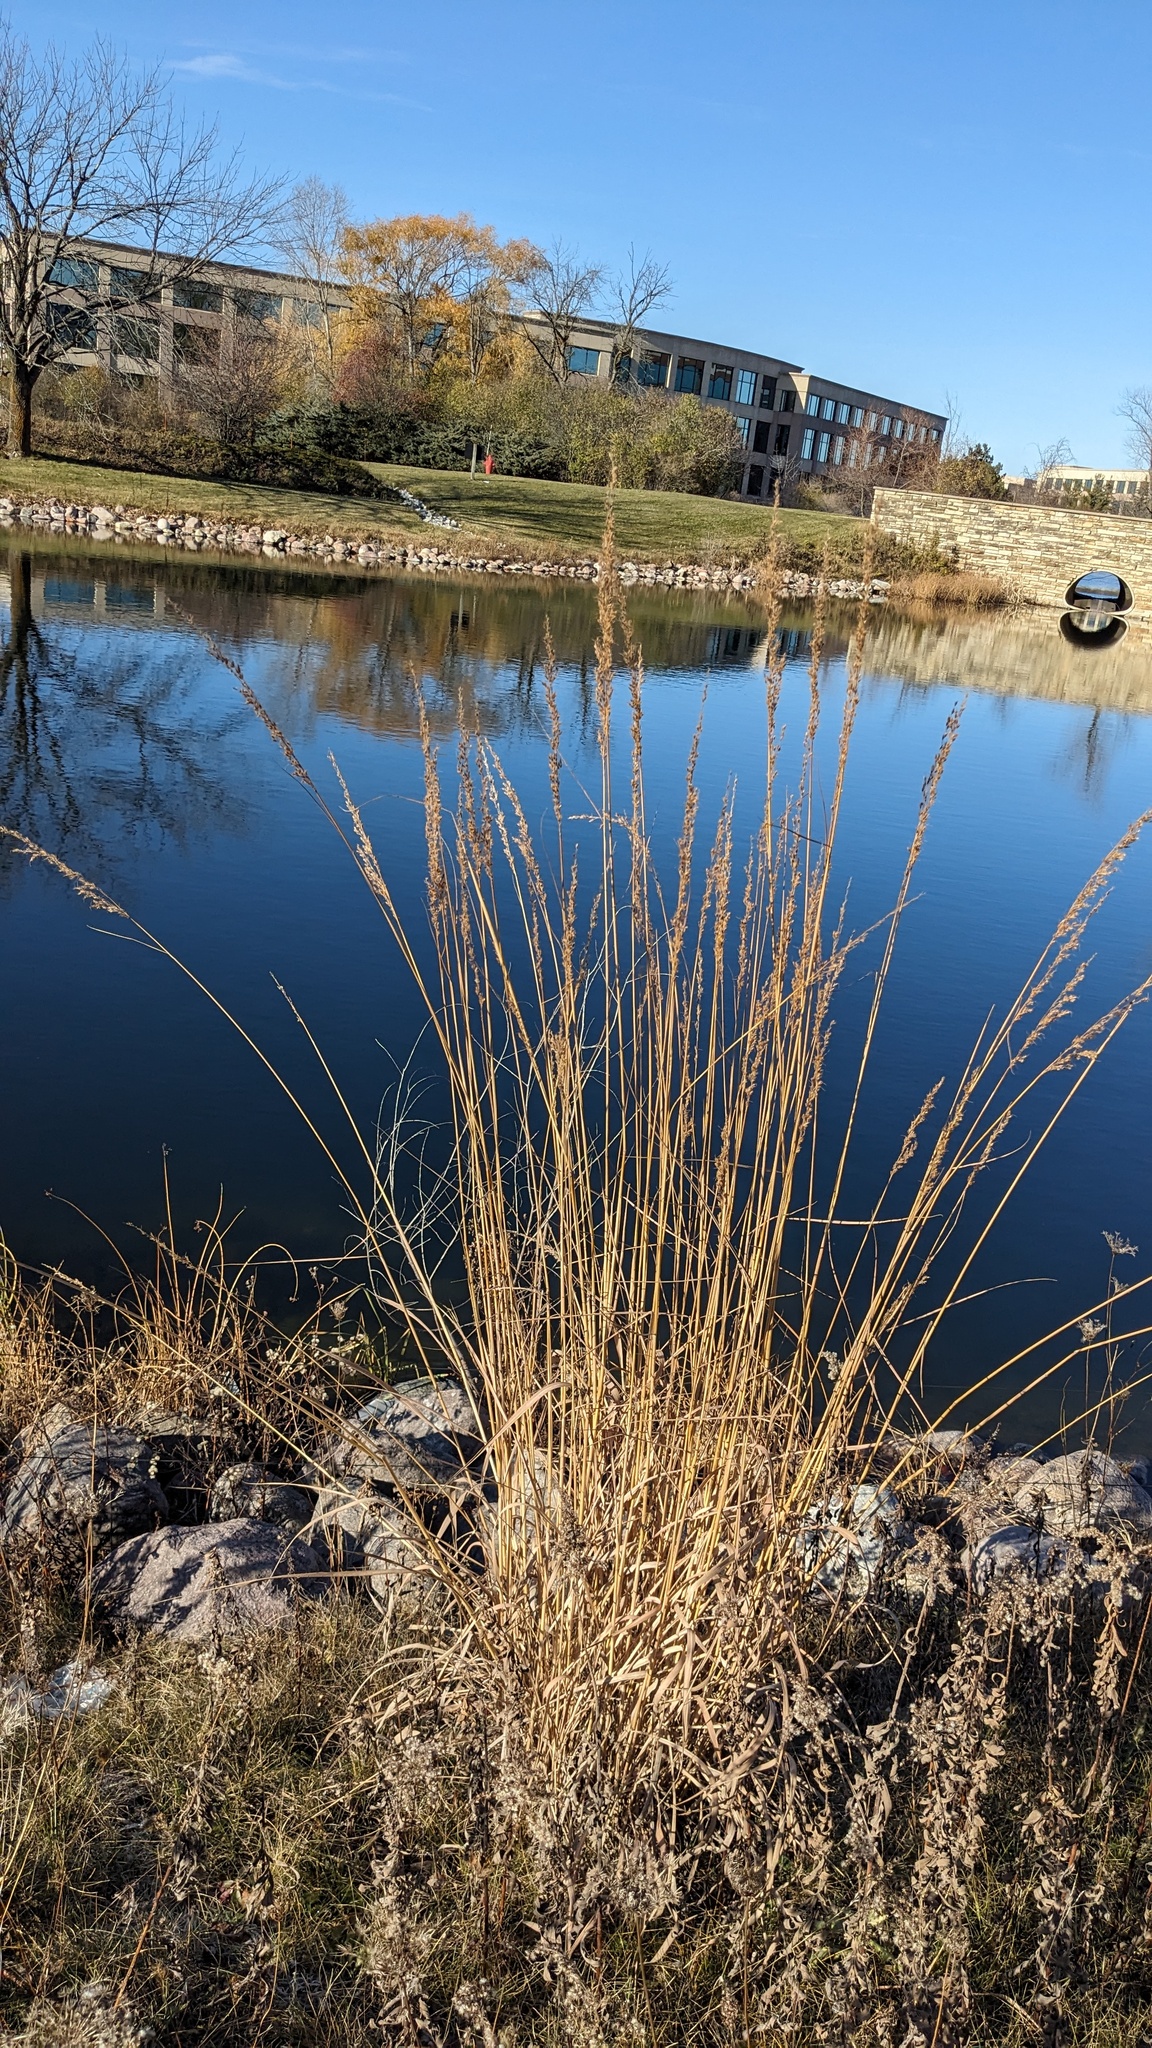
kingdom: Plantae
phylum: Tracheophyta
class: Liliopsida
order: Poales
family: Poaceae
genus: Sorghastrum
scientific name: Sorghastrum nutans
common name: Indian grass
